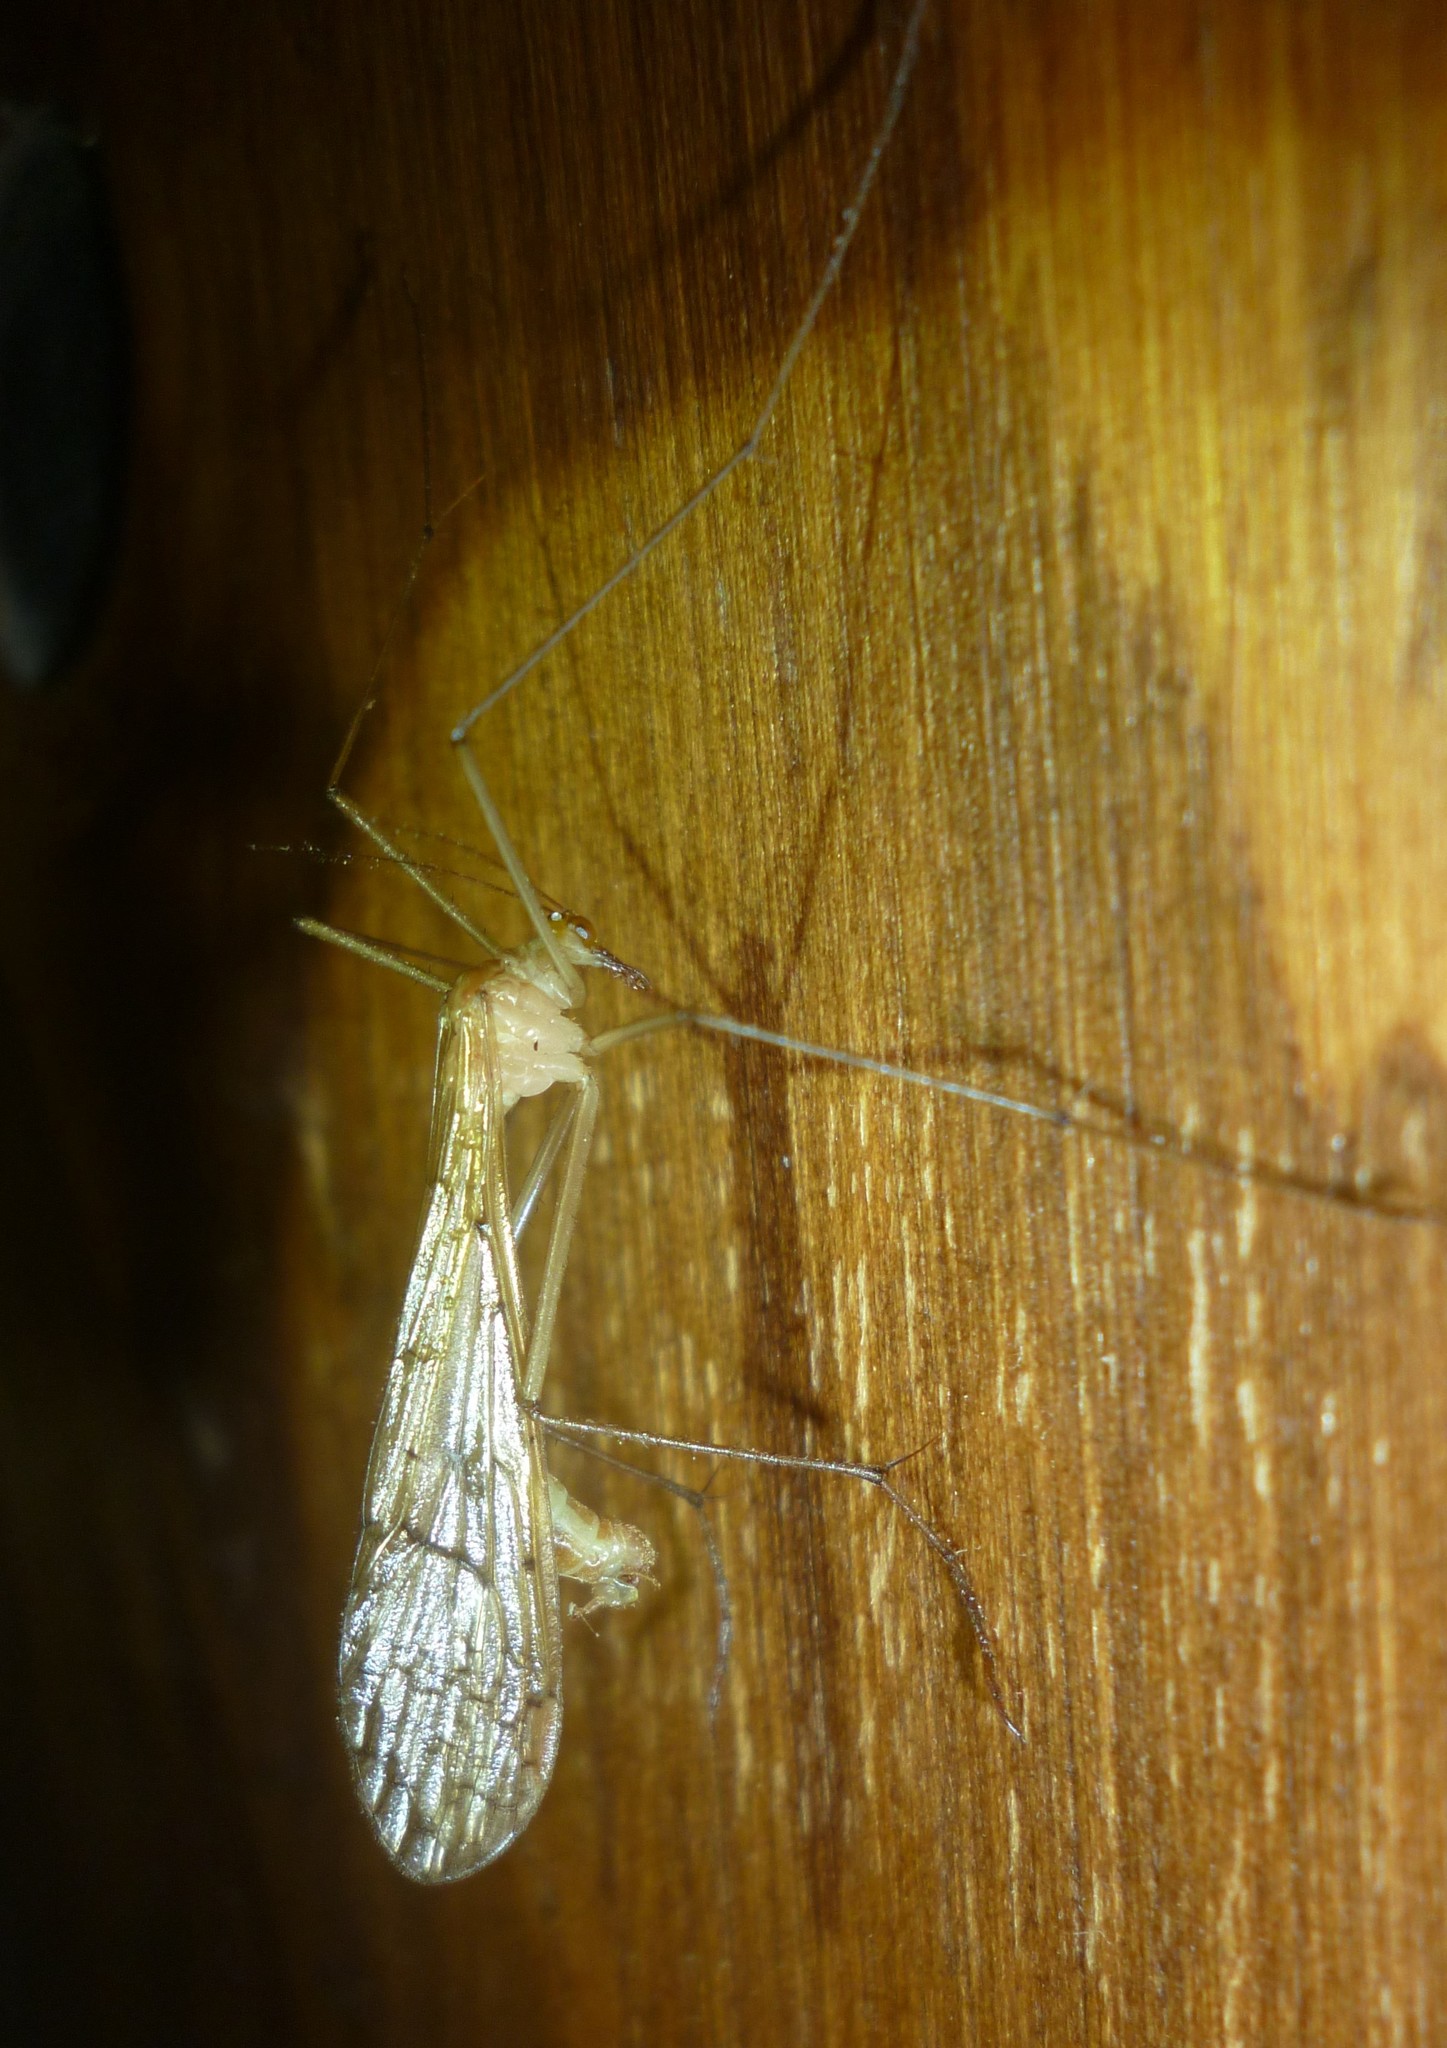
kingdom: Animalia
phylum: Arthropoda
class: Insecta
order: Mecoptera
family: Bittacidae
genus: Bittacus
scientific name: Bittacus pilicornis
